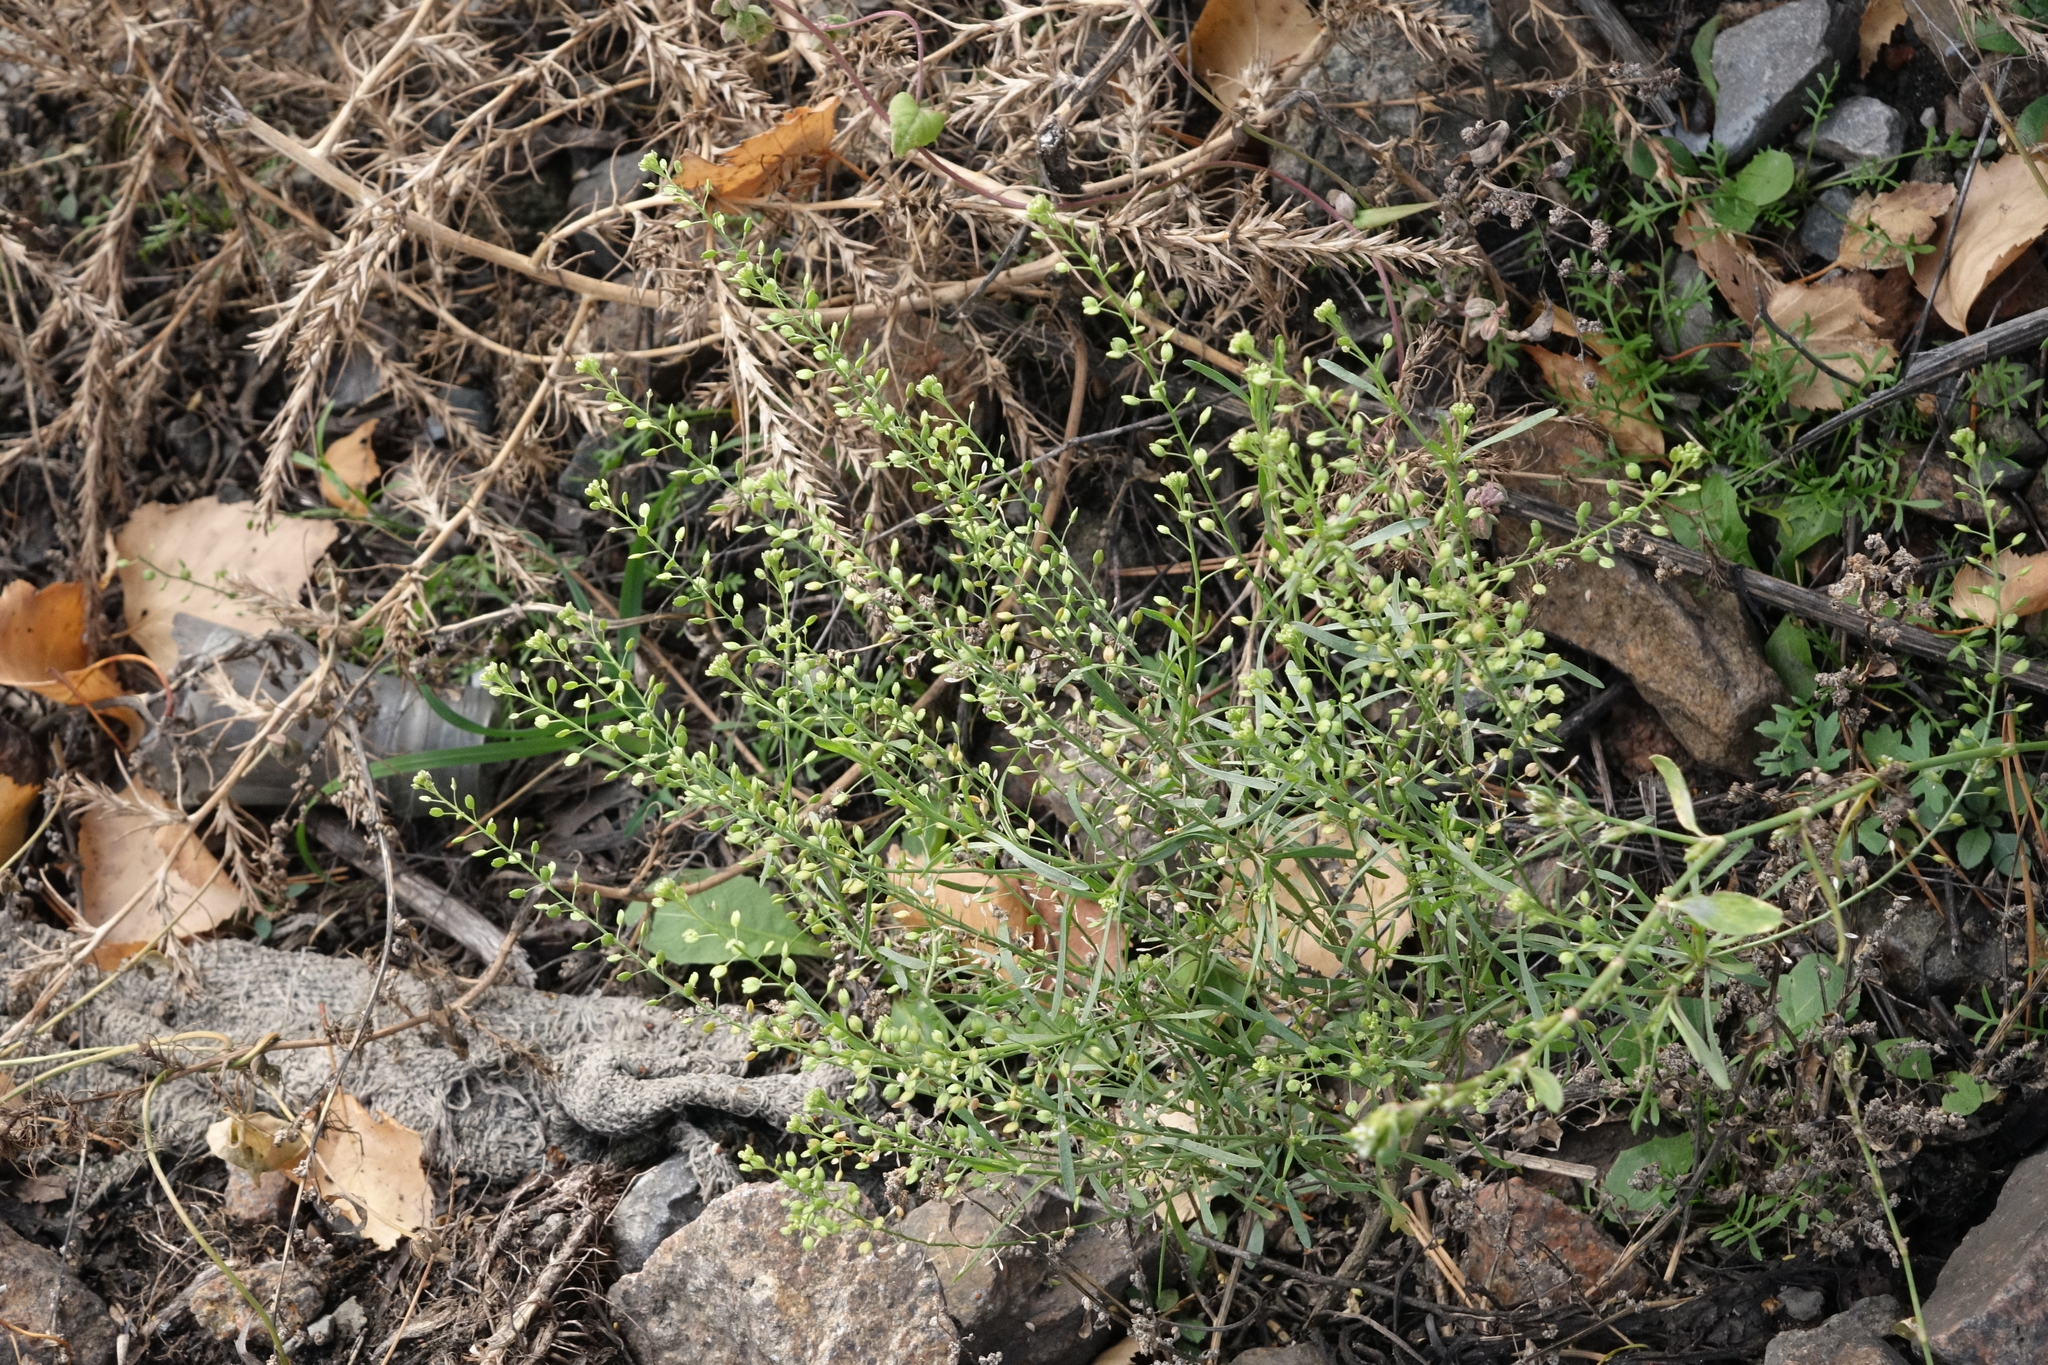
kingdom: Plantae
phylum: Tracheophyta
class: Magnoliopsida
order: Brassicales
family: Brassicaceae
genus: Lepidium
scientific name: Lepidium ruderale
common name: Narrow-leaved pepperwort
